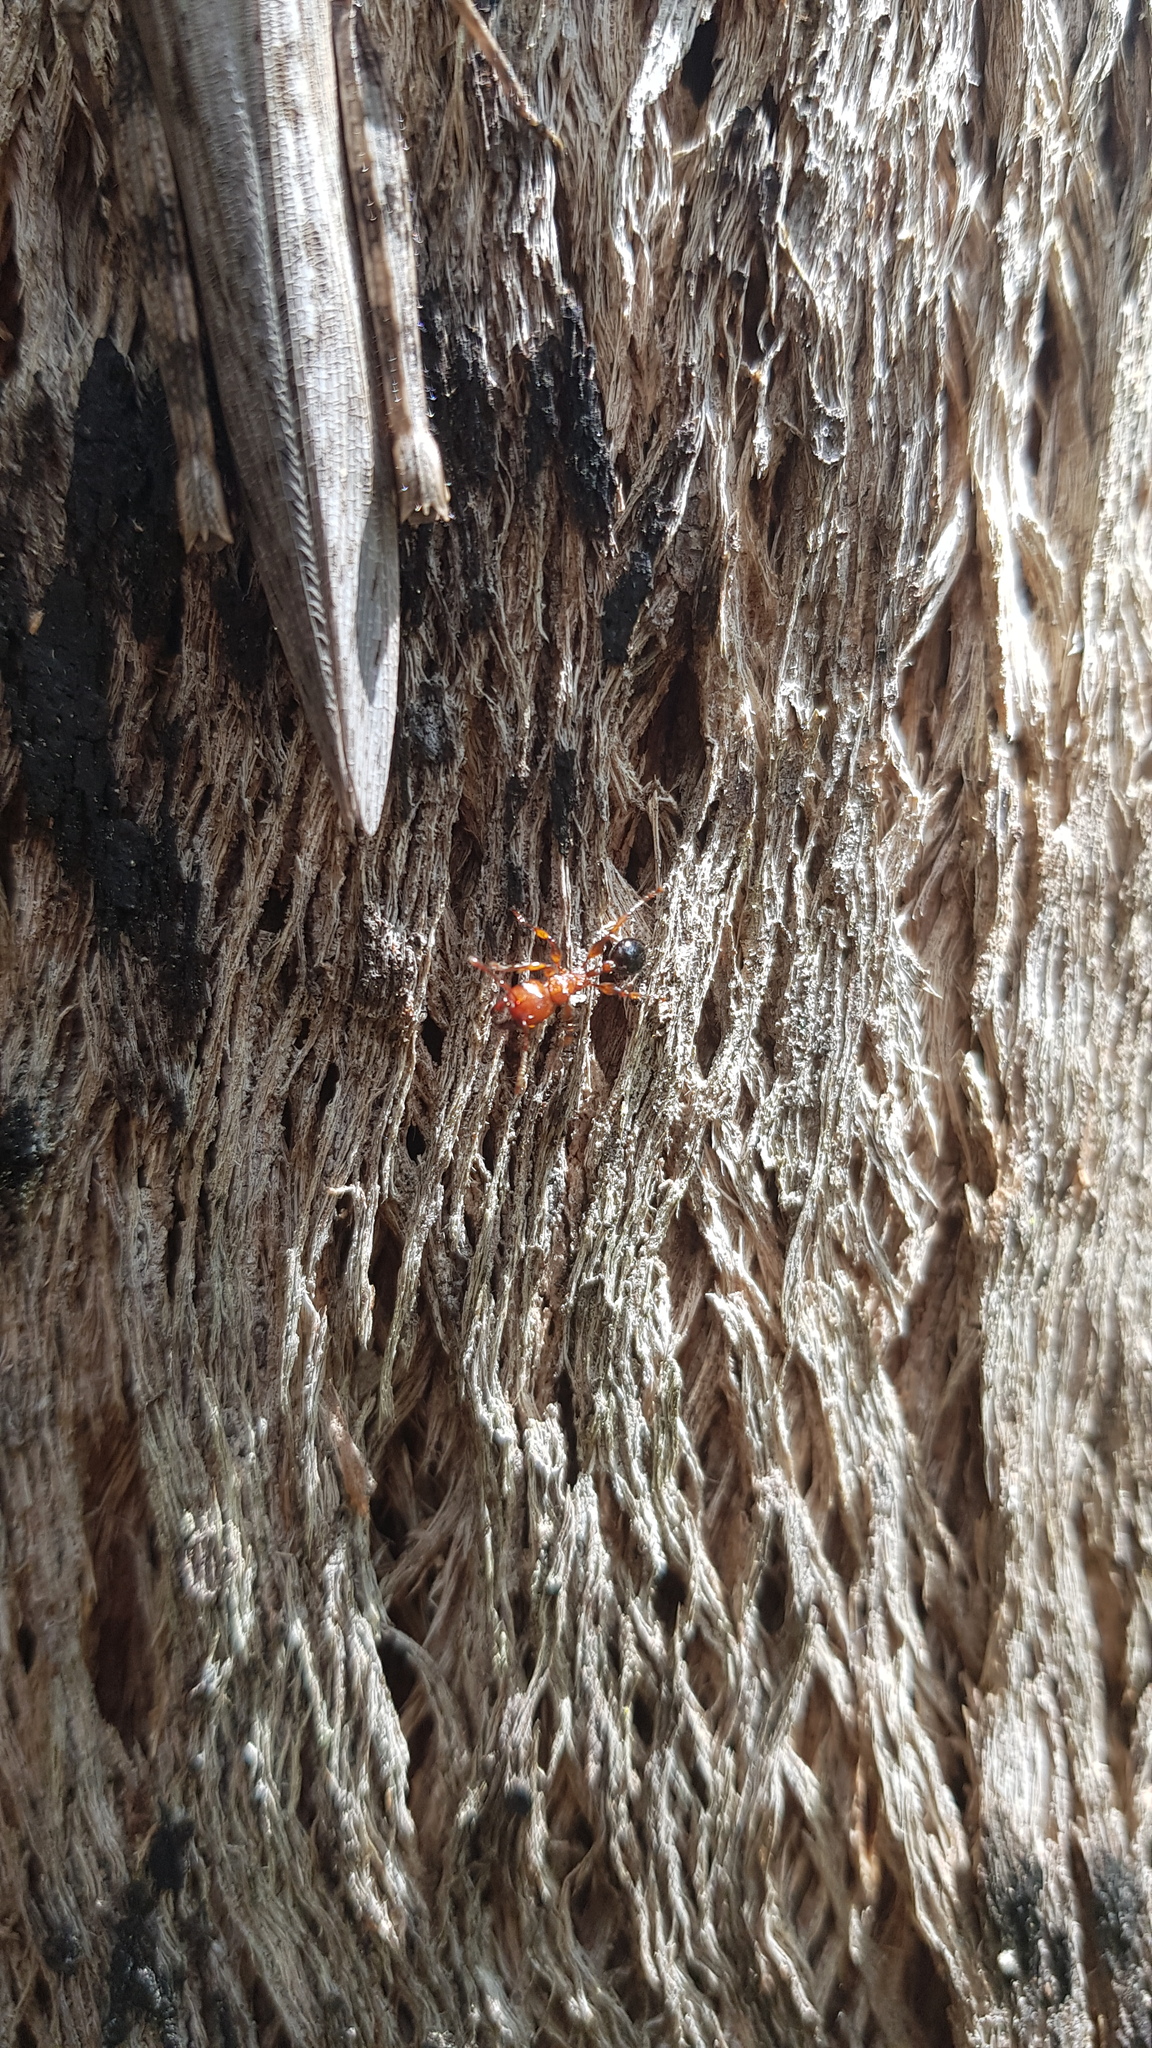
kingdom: Animalia
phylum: Arthropoda
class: Insecta
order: Hymenoptera
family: Formicidae
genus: Podomyrma
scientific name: Podomyrma gratiosa
